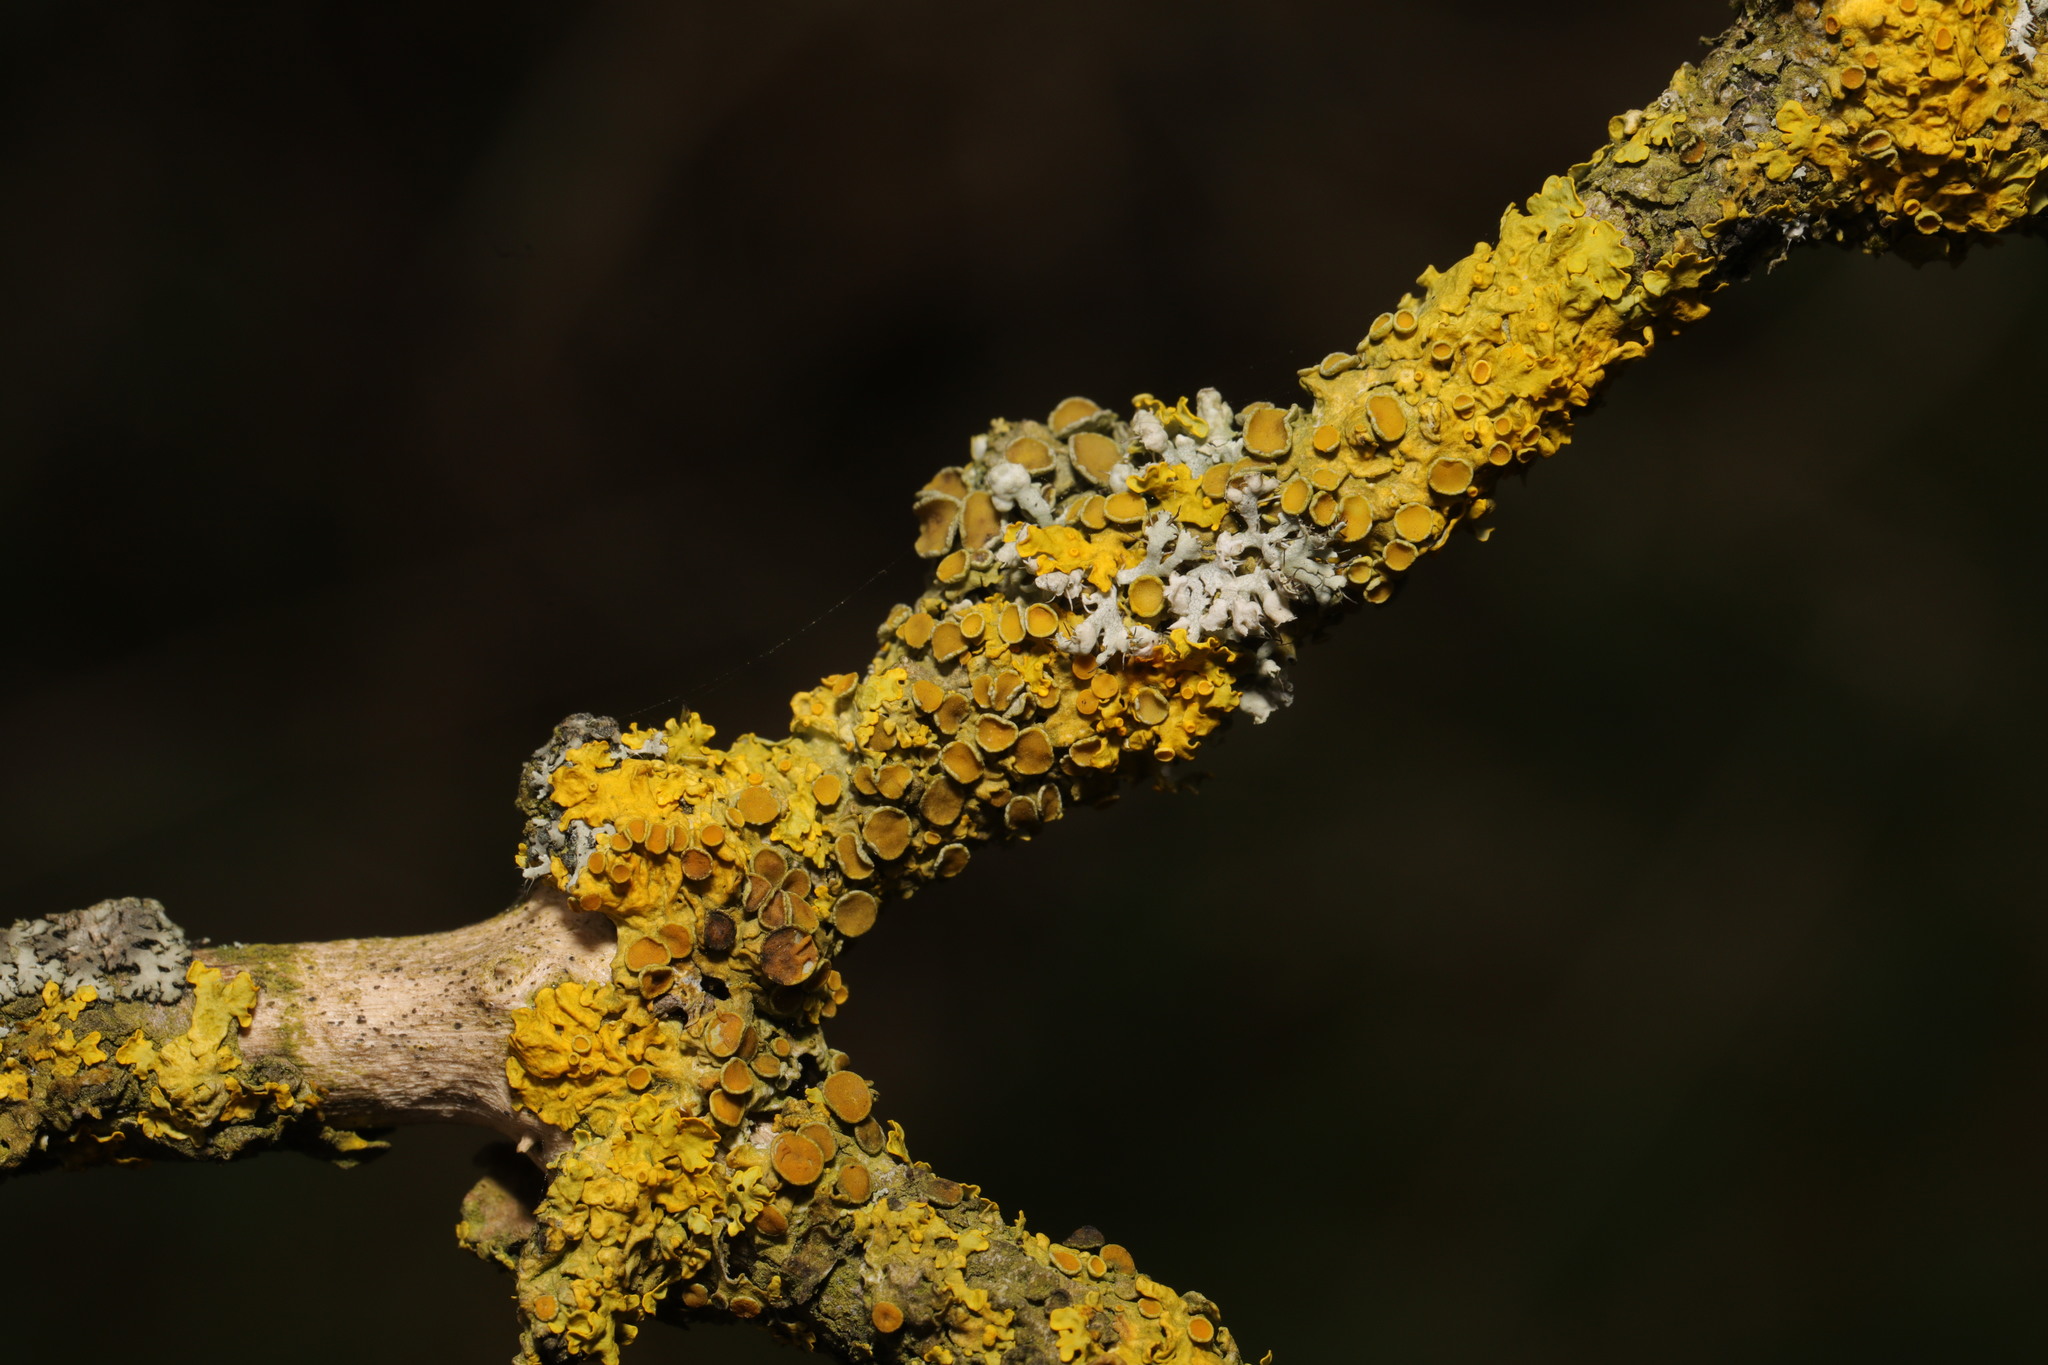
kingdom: Fungi
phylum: Ascomycota
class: Lecanoromycetes
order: Teloschistales
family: Teloschistaceae
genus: Xanthoria
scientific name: Xanthoria parietina
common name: Common orange lichen
